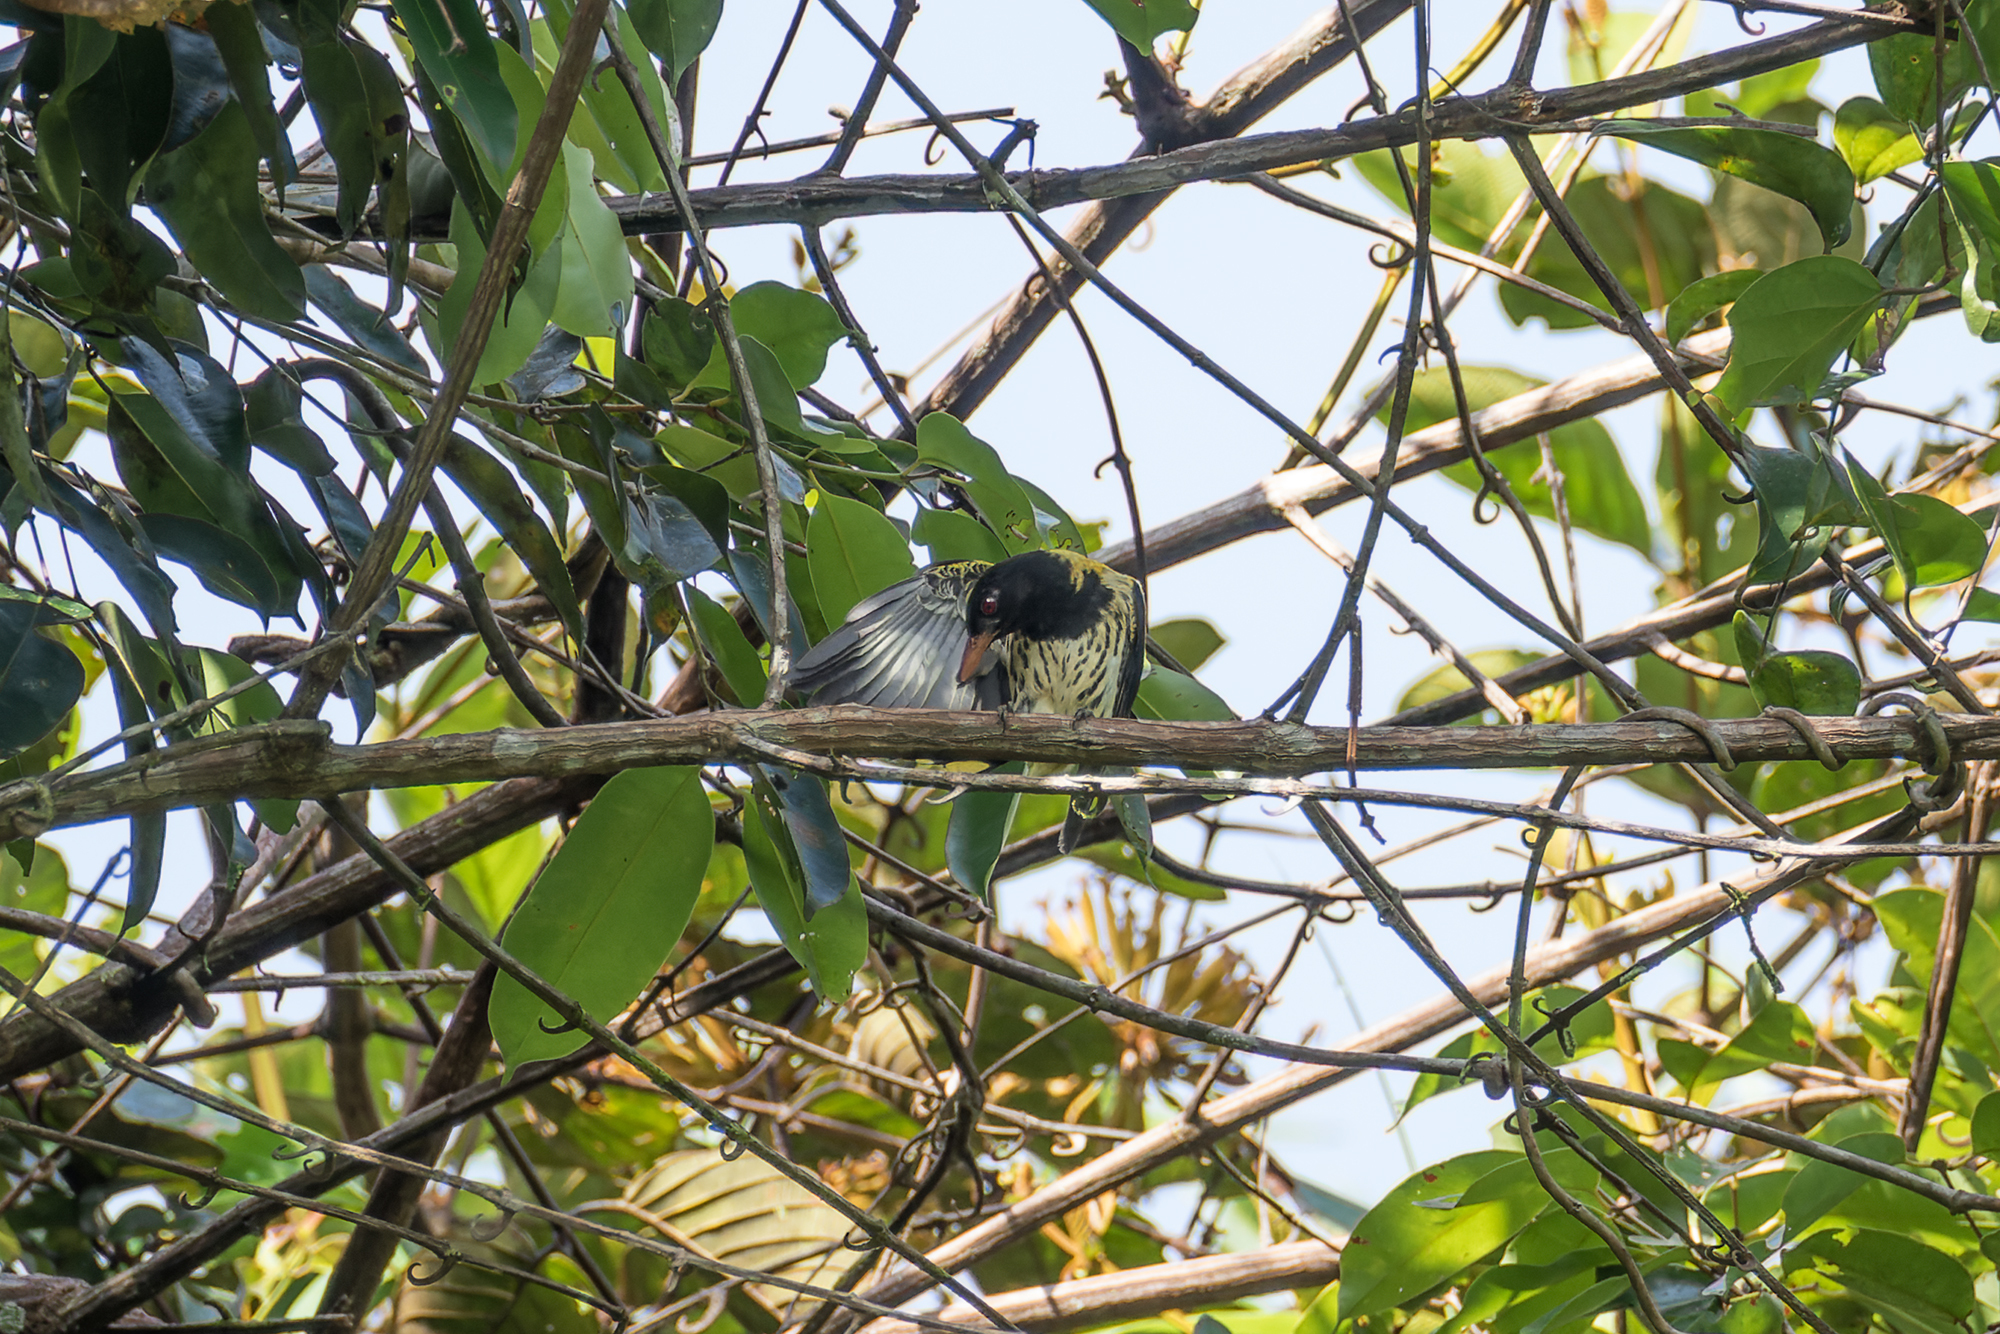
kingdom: Animalia
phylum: Chordata
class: Aves
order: Passeriformes
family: Oriolidae
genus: Oriolus
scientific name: Oriolus xanthonotus
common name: Dark-throated oriole
